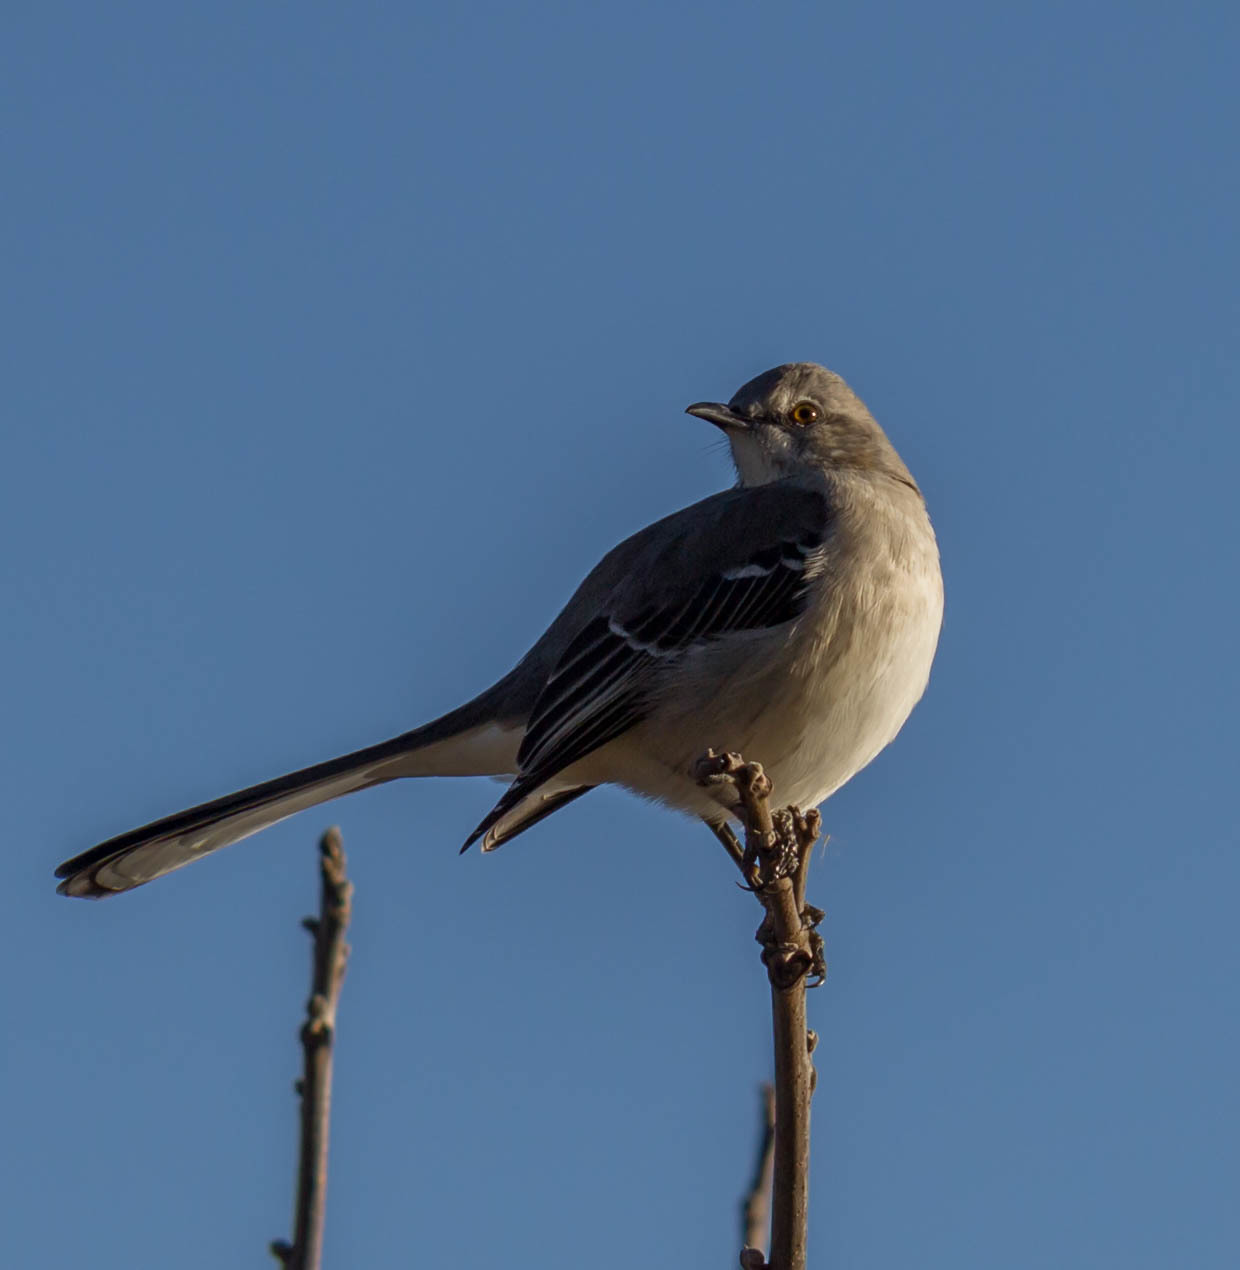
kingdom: Animalia
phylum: Chordata
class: Aves
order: Passeriformes
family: Mimidae
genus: Mimus
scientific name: Mimus polyglottos
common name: Northern mockingbird
